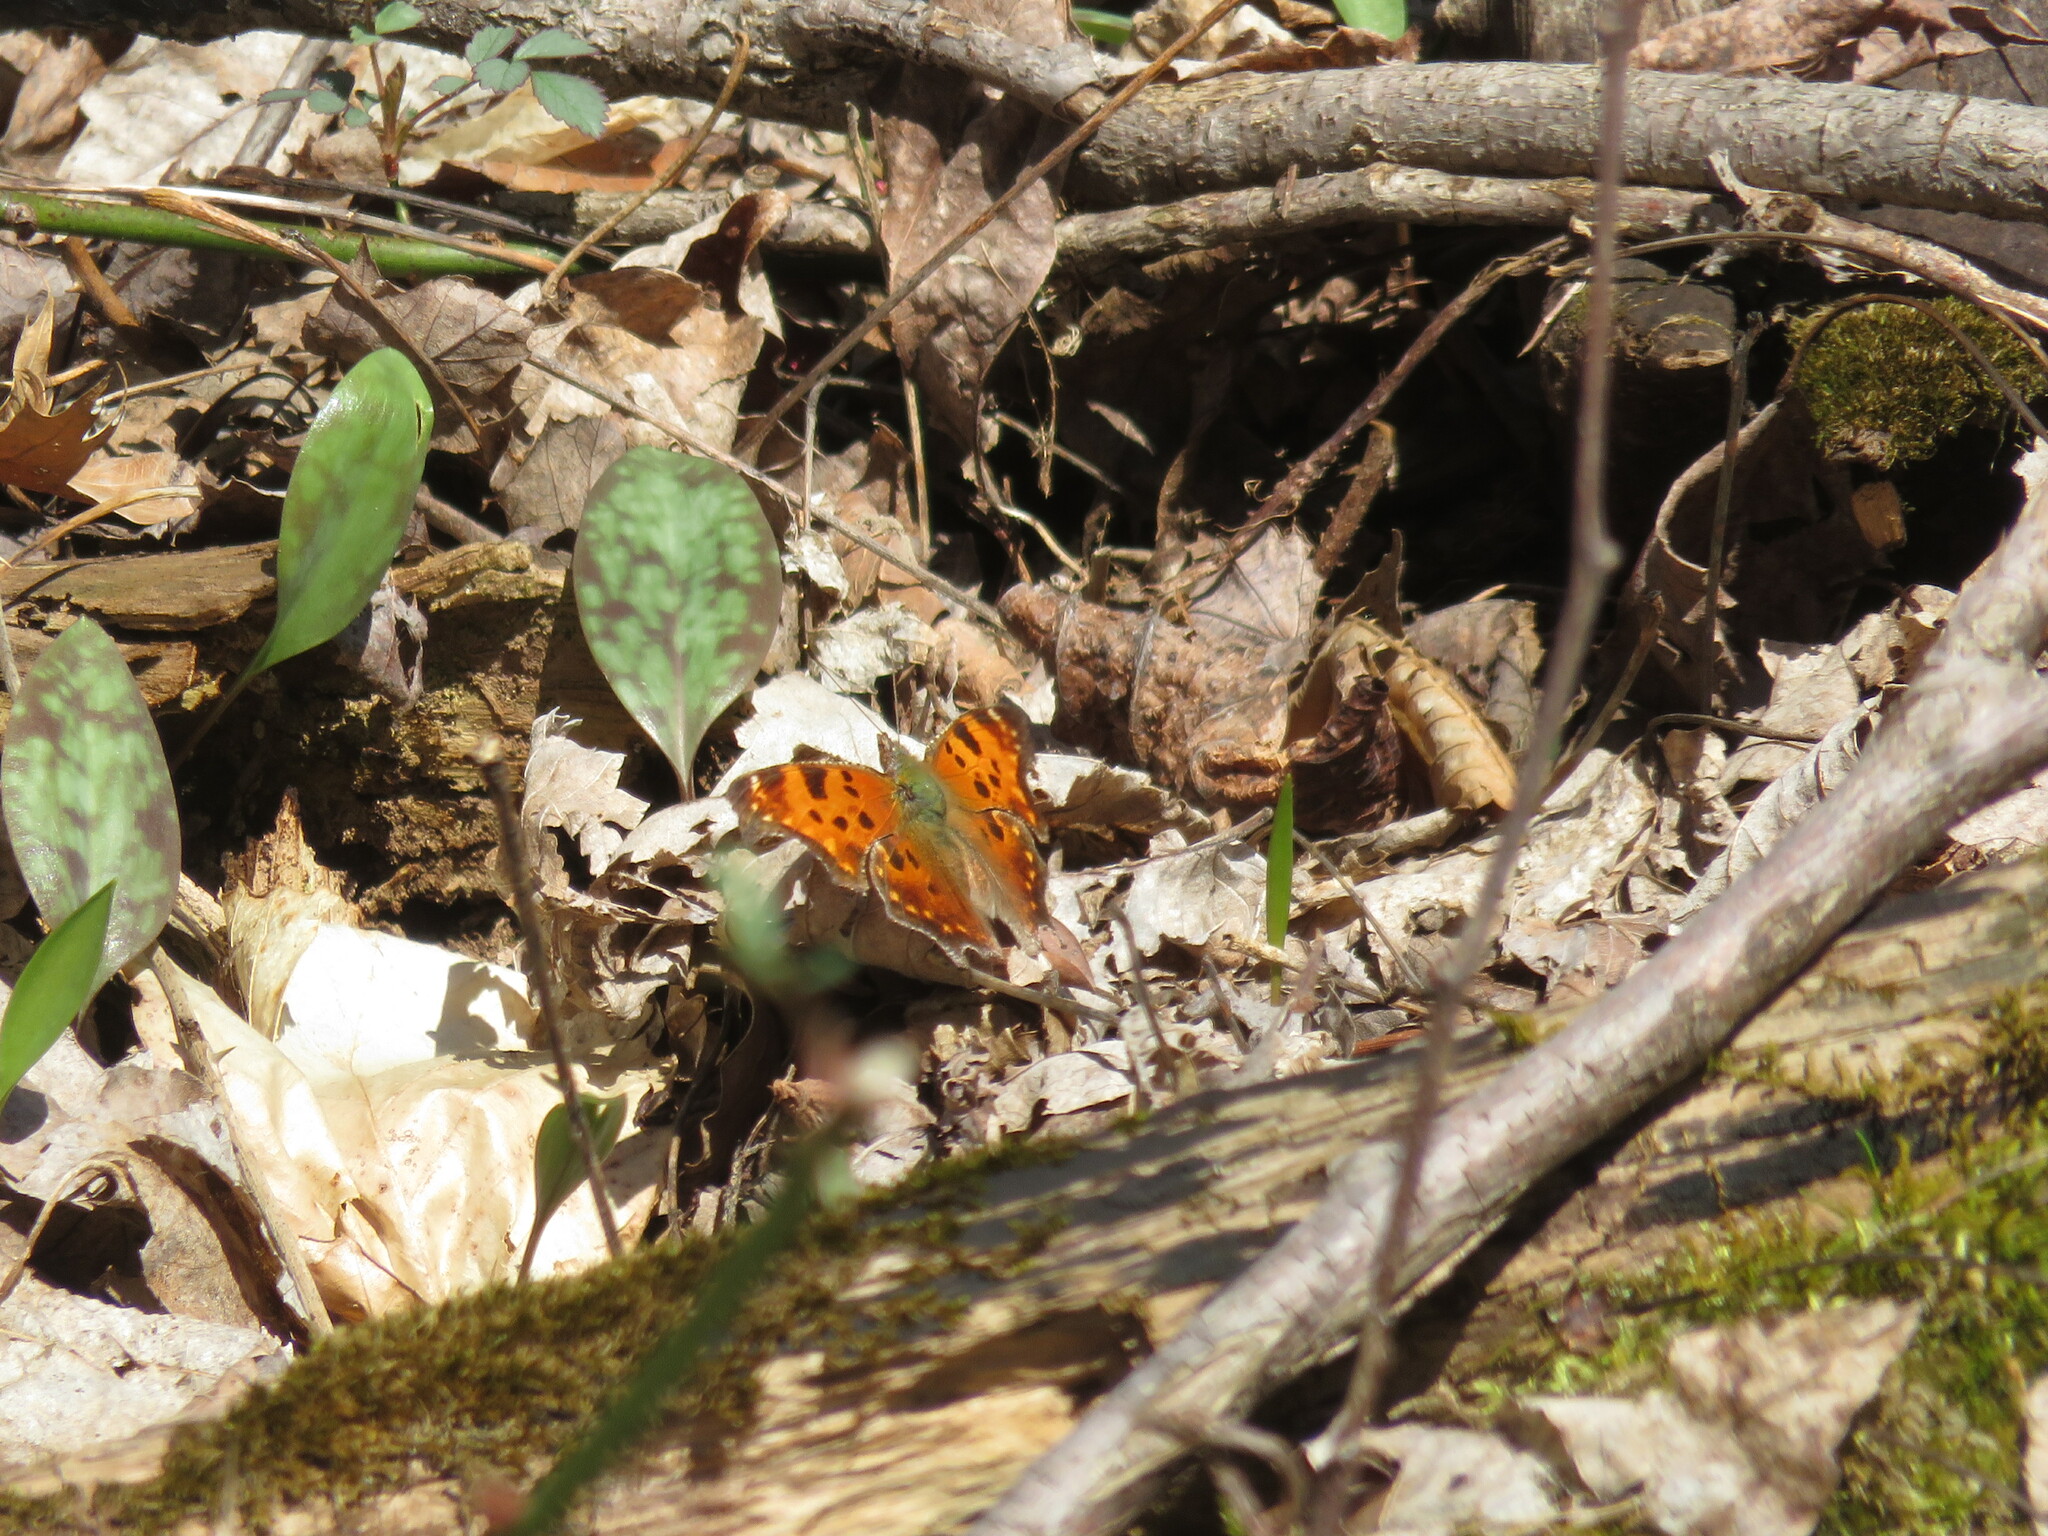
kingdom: Animalia
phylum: Arthropoda
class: Insecta
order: Lepidoptera
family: Nymphalidae
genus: Polygonia
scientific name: Polygonia comma
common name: Eastern comma
